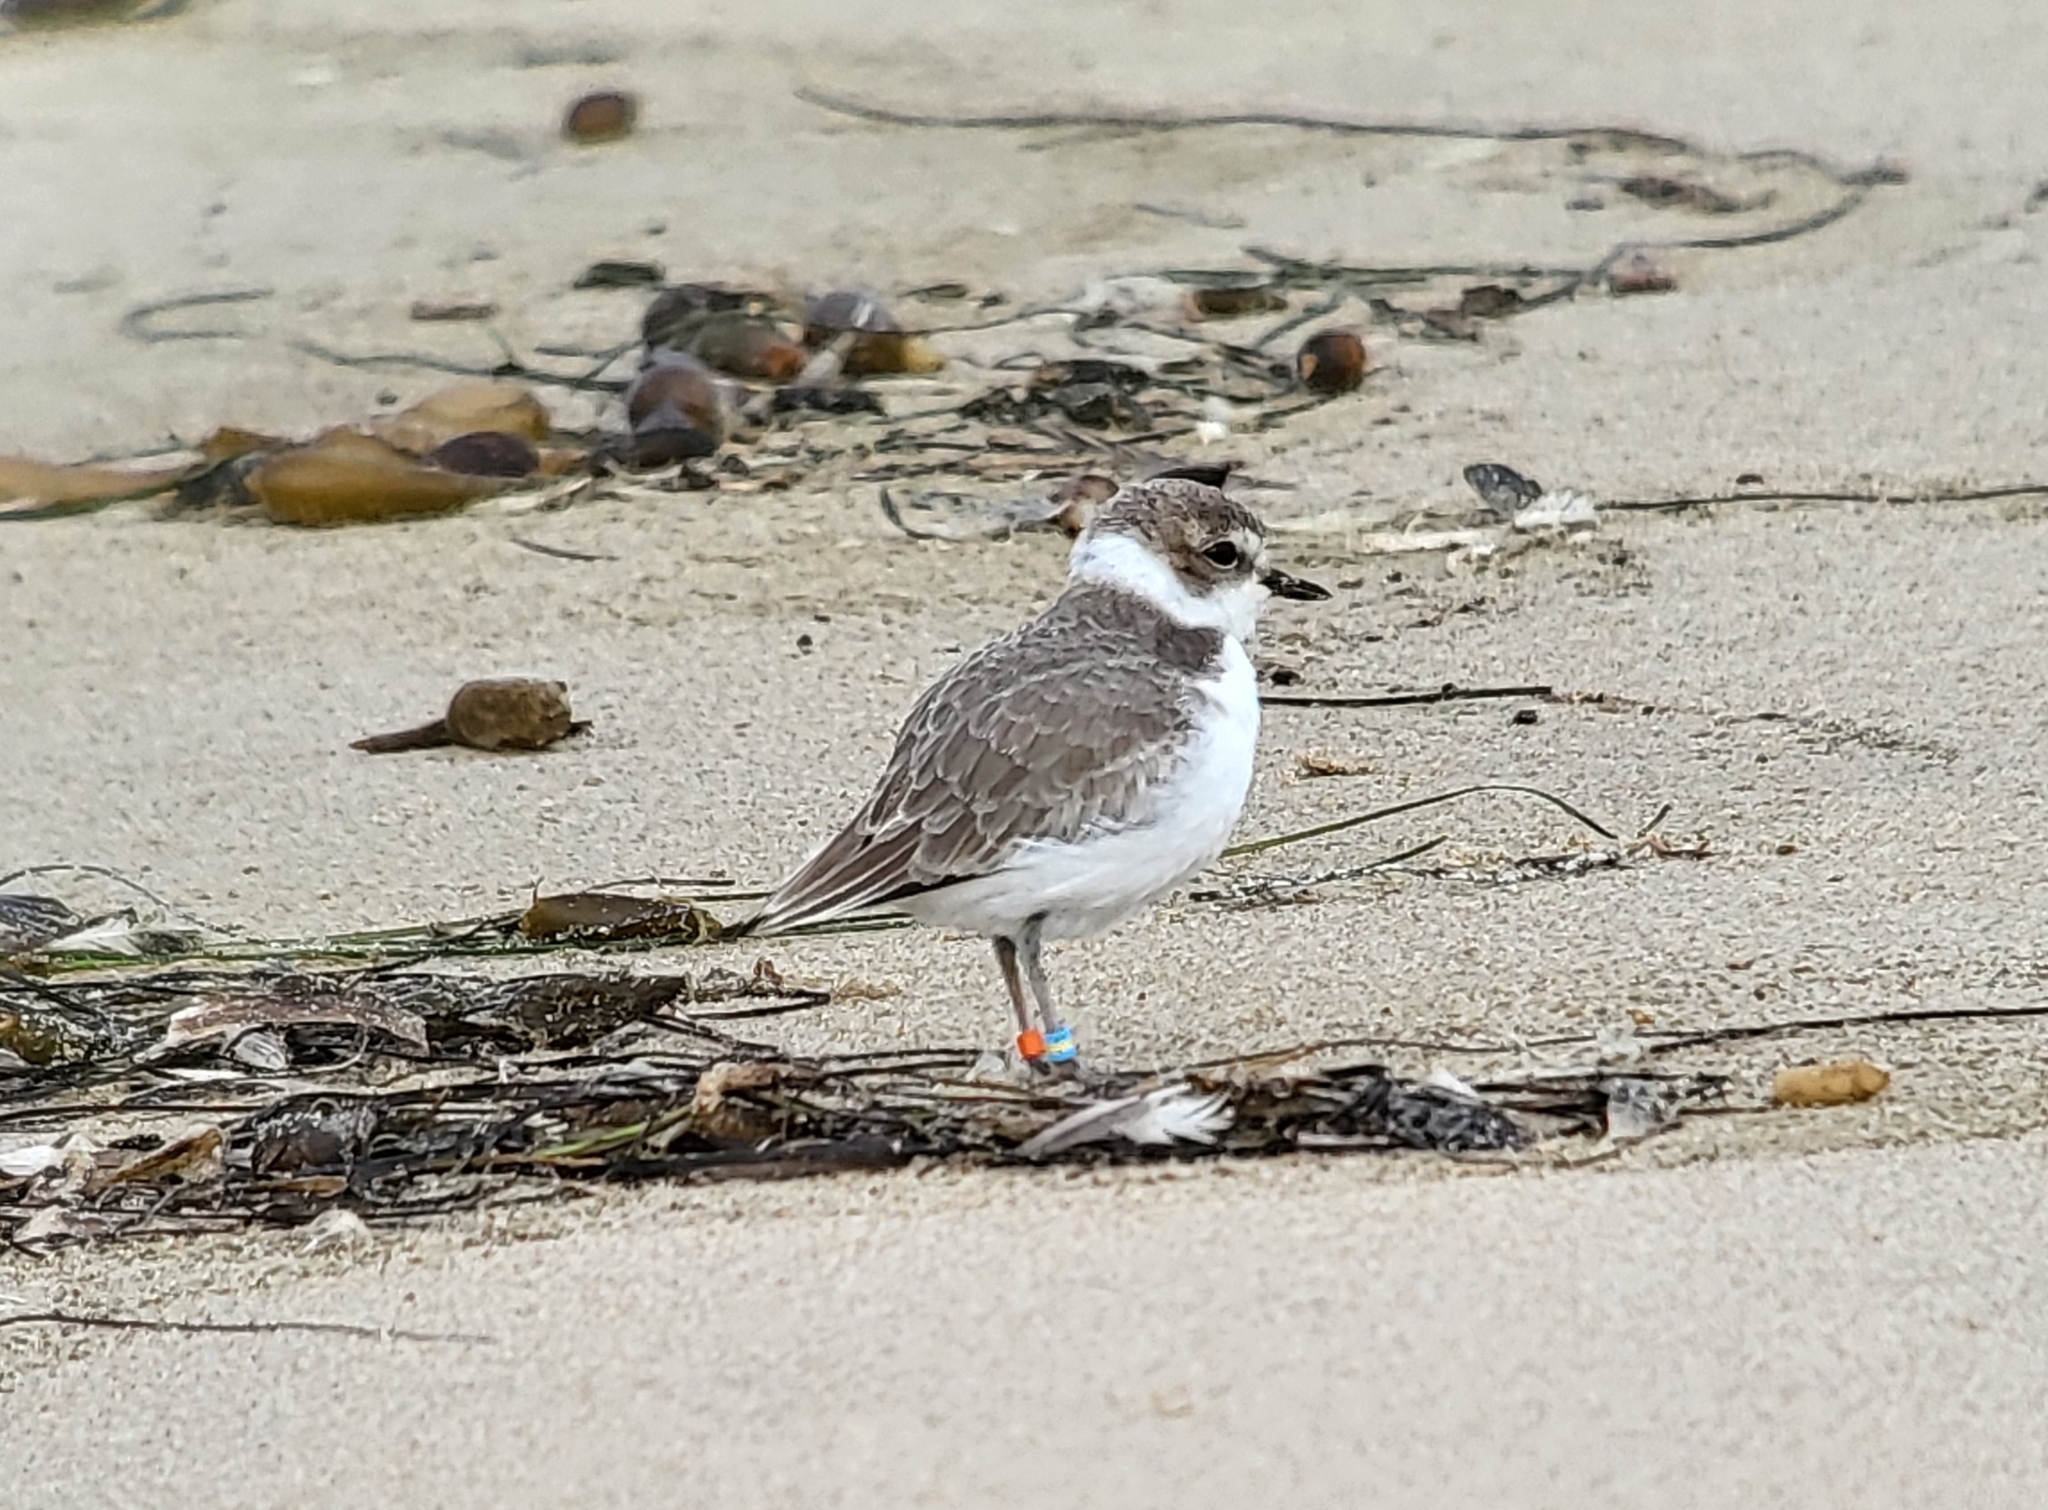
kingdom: Animalia
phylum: Chordata
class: Aves
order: Charadriiformes
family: Charadriidae
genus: Anarhynchus
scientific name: Anarhynchus
